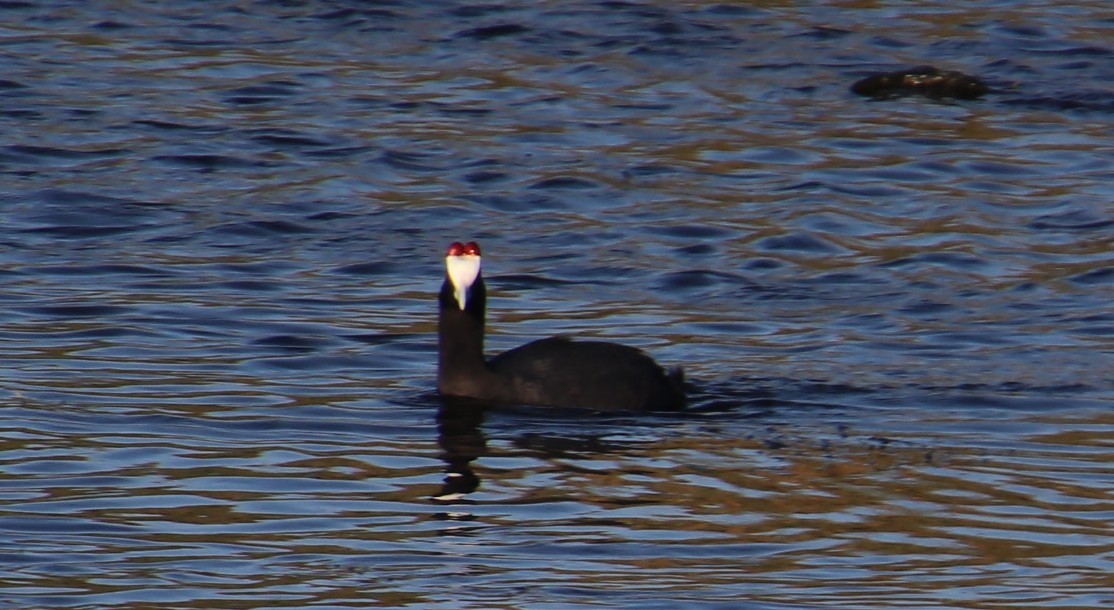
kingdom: Animalia
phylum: Chordata
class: Aves
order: Gruiformes
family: Rallidae
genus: Fulica
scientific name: Fulica cristata
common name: Red-knobbed coot
